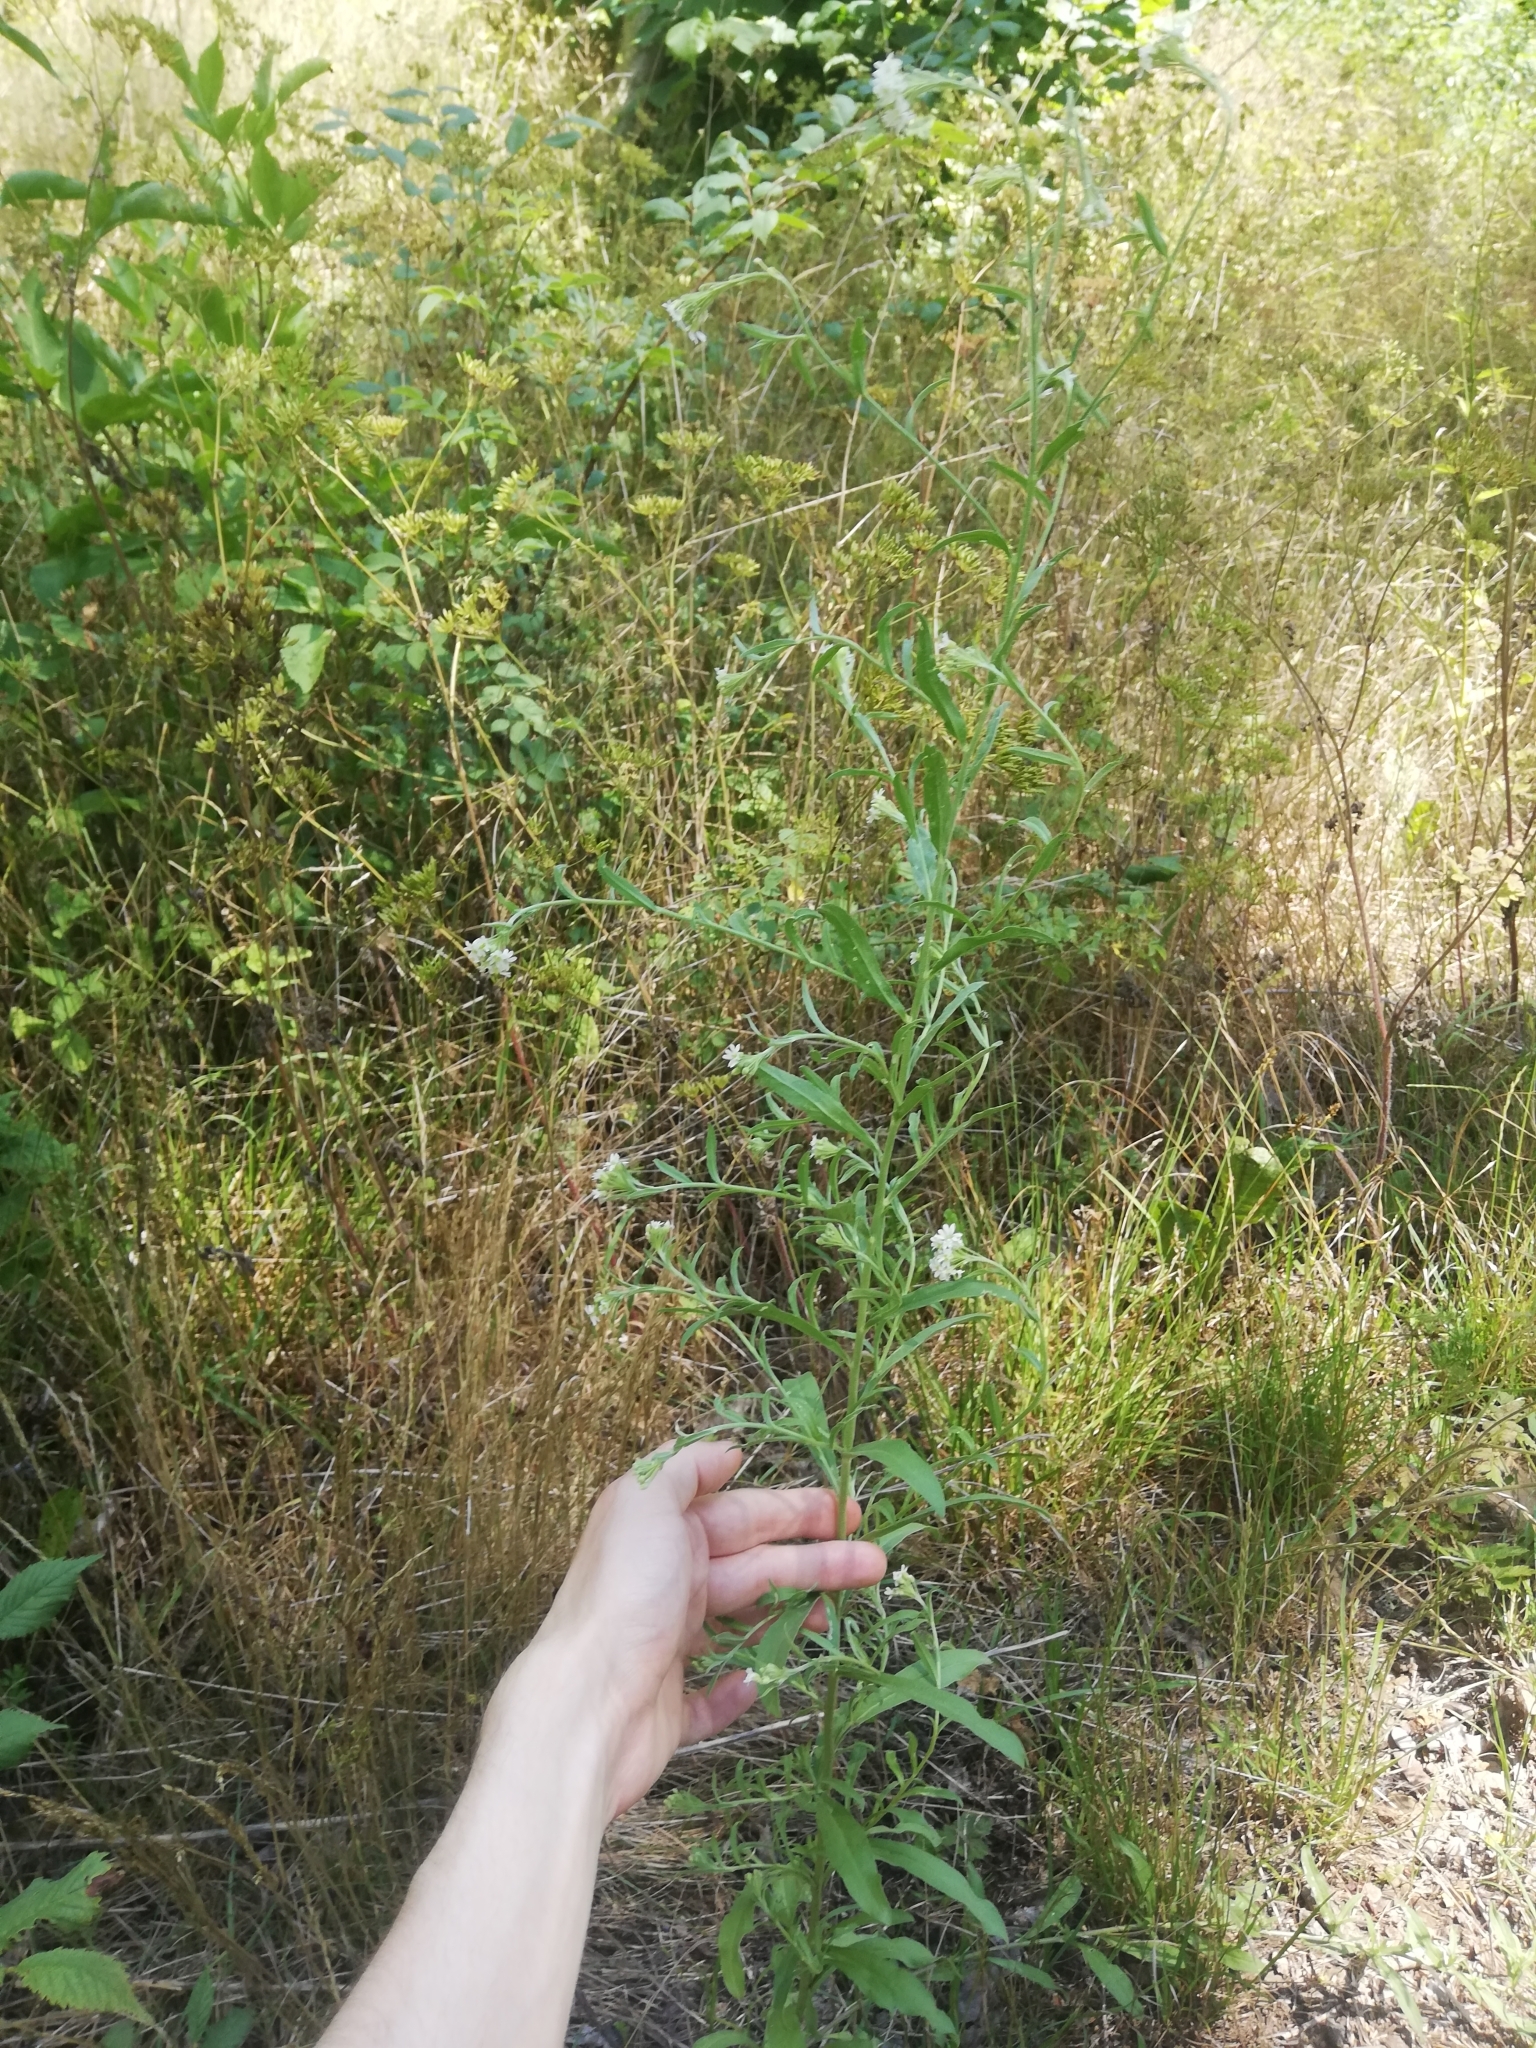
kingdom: Plantae
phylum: Tracheophyta
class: Magnoliopsida
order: Brassicales
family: Brassicaceae
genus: Berteroa
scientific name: Berteroa incana
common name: Hoary alison
